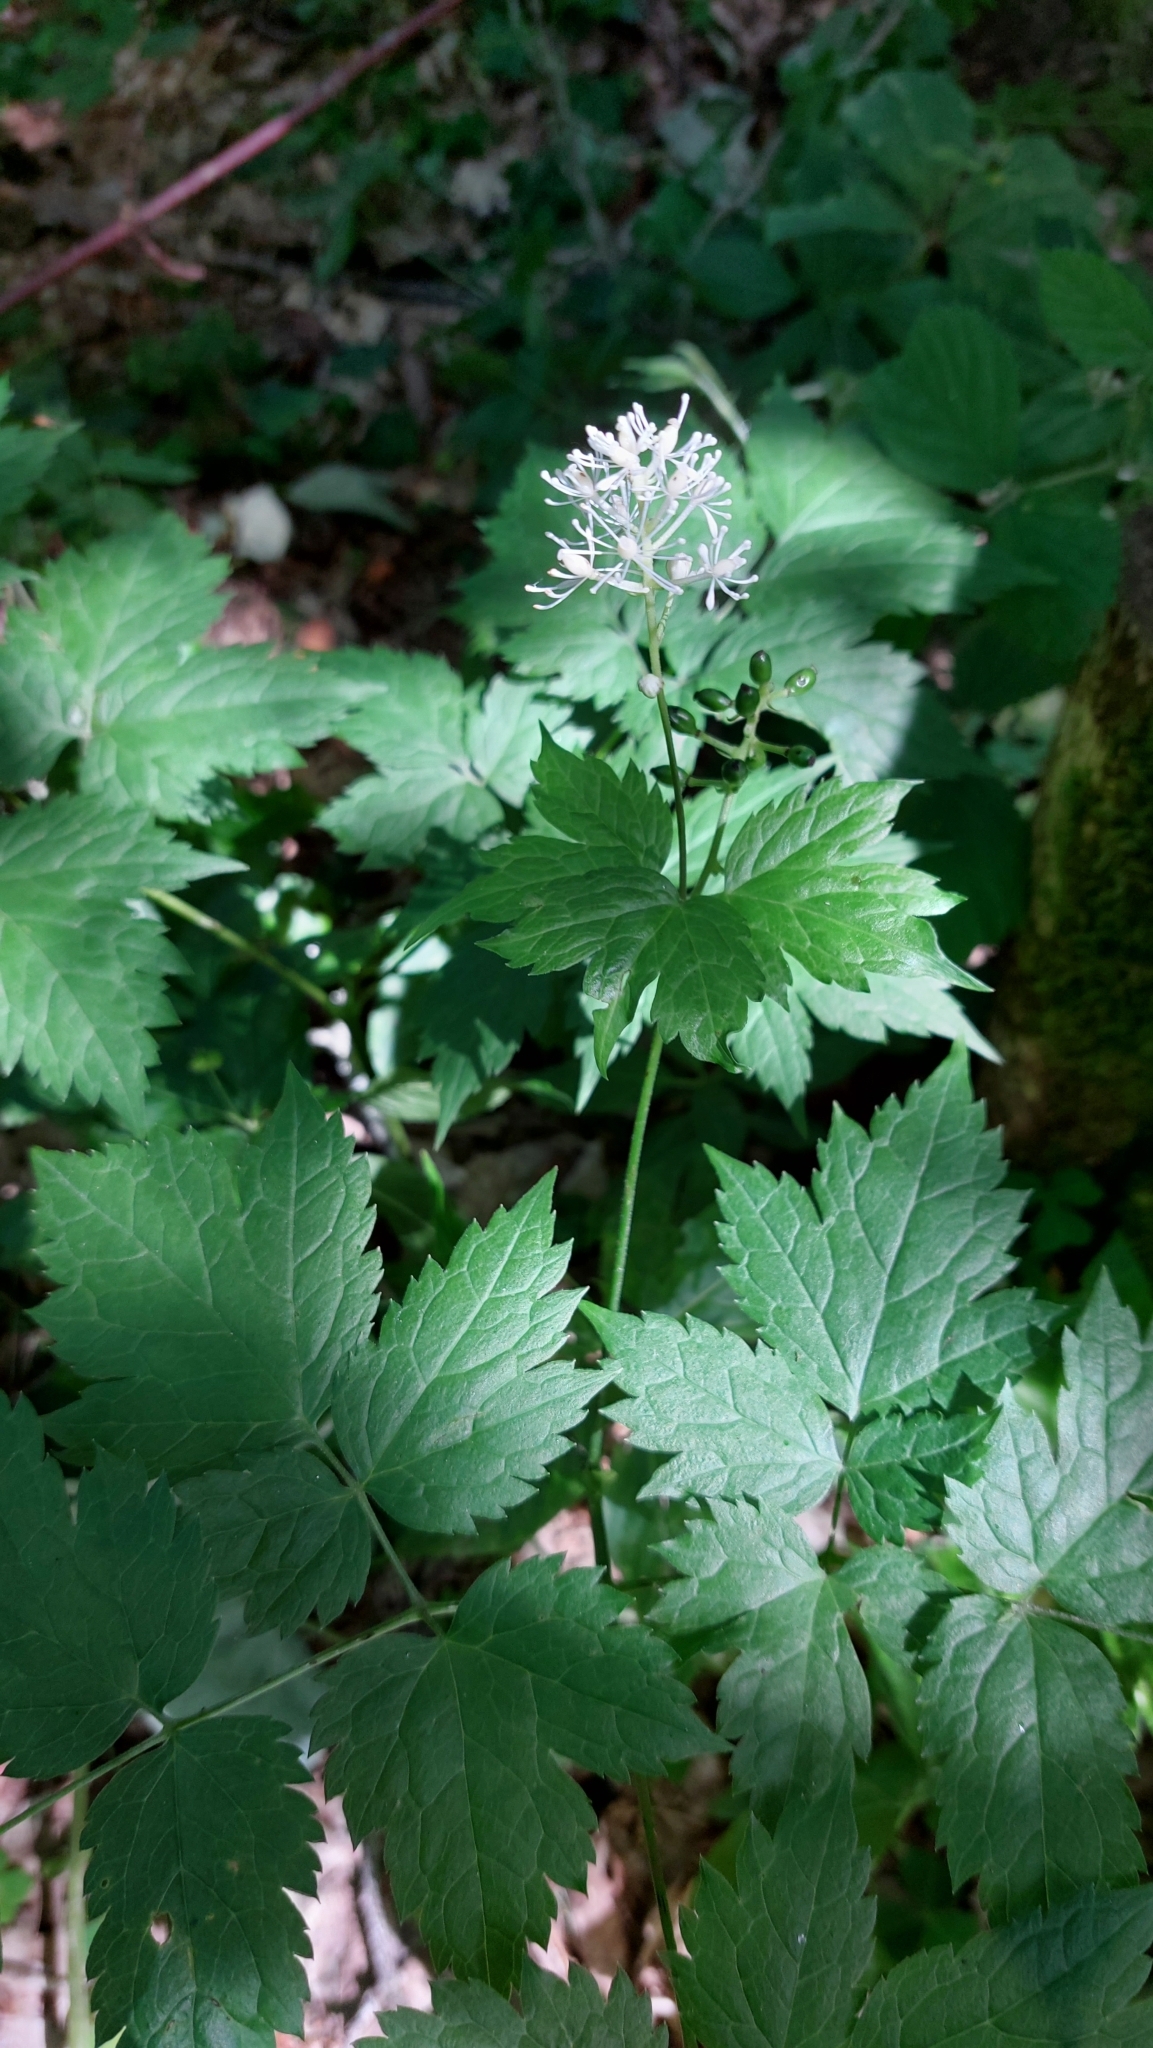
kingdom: Plantae
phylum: Tracheophyta
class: Magnoliopsida
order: Ranunculales
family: Ranunculaceae
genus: Actaea
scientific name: Actaea spicata
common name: Baneberry
